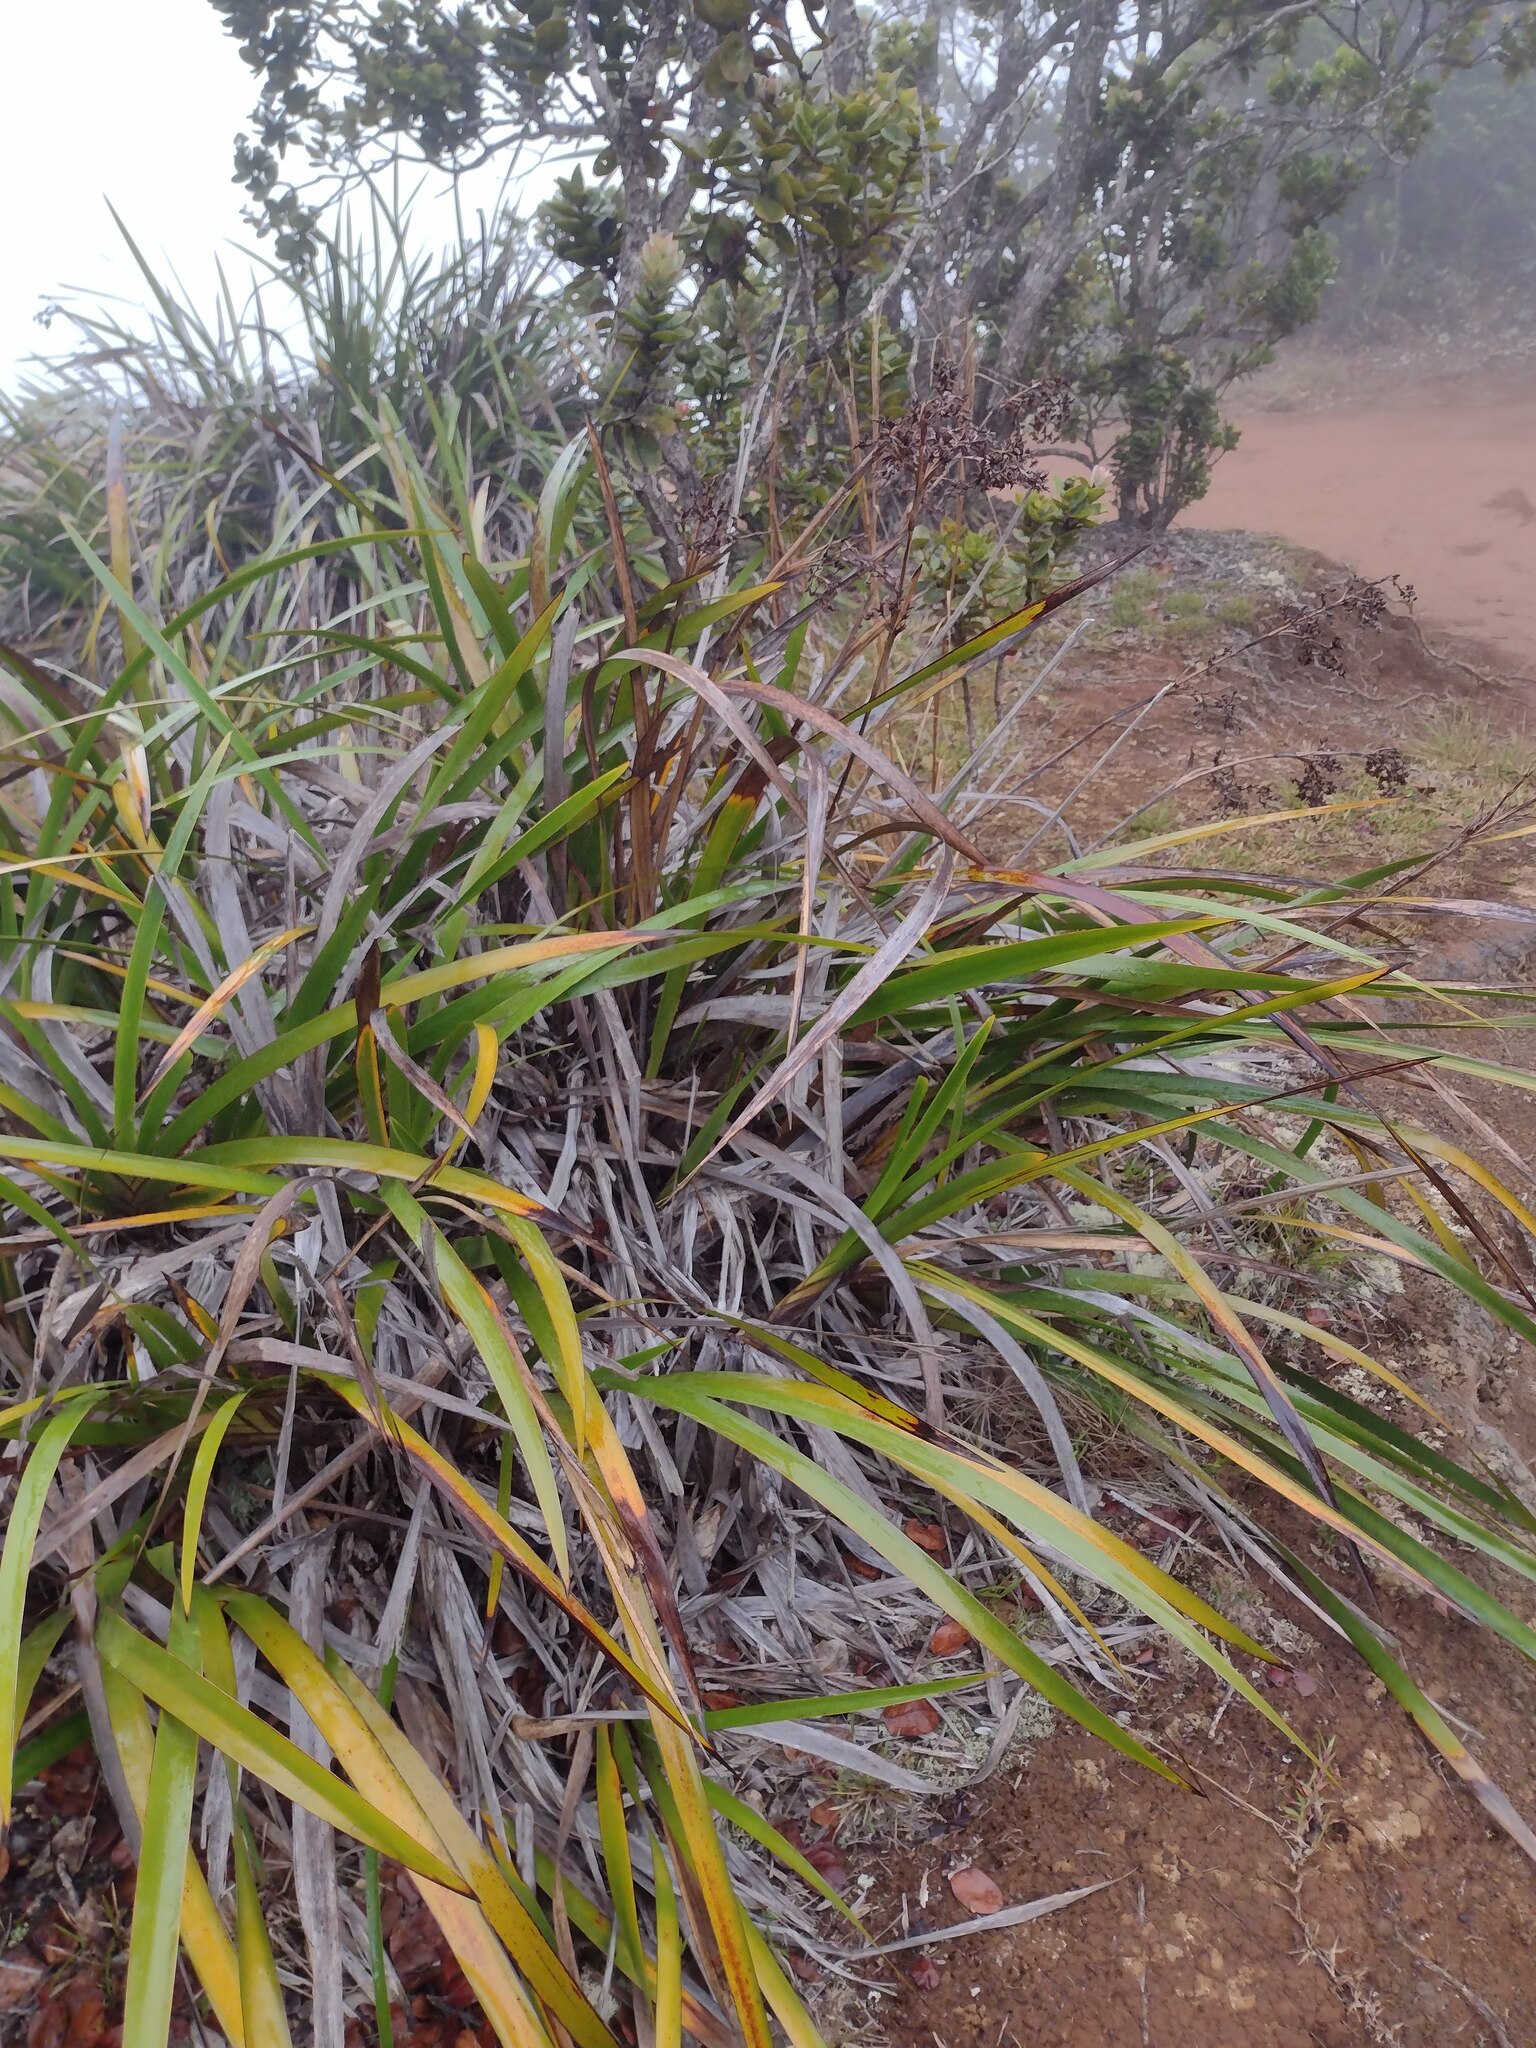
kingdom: Plantae
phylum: Tracheophyta
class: Liliopsida
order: Poales
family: Cyperaceae
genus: Machaerina
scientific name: Machaerina angustifolia
